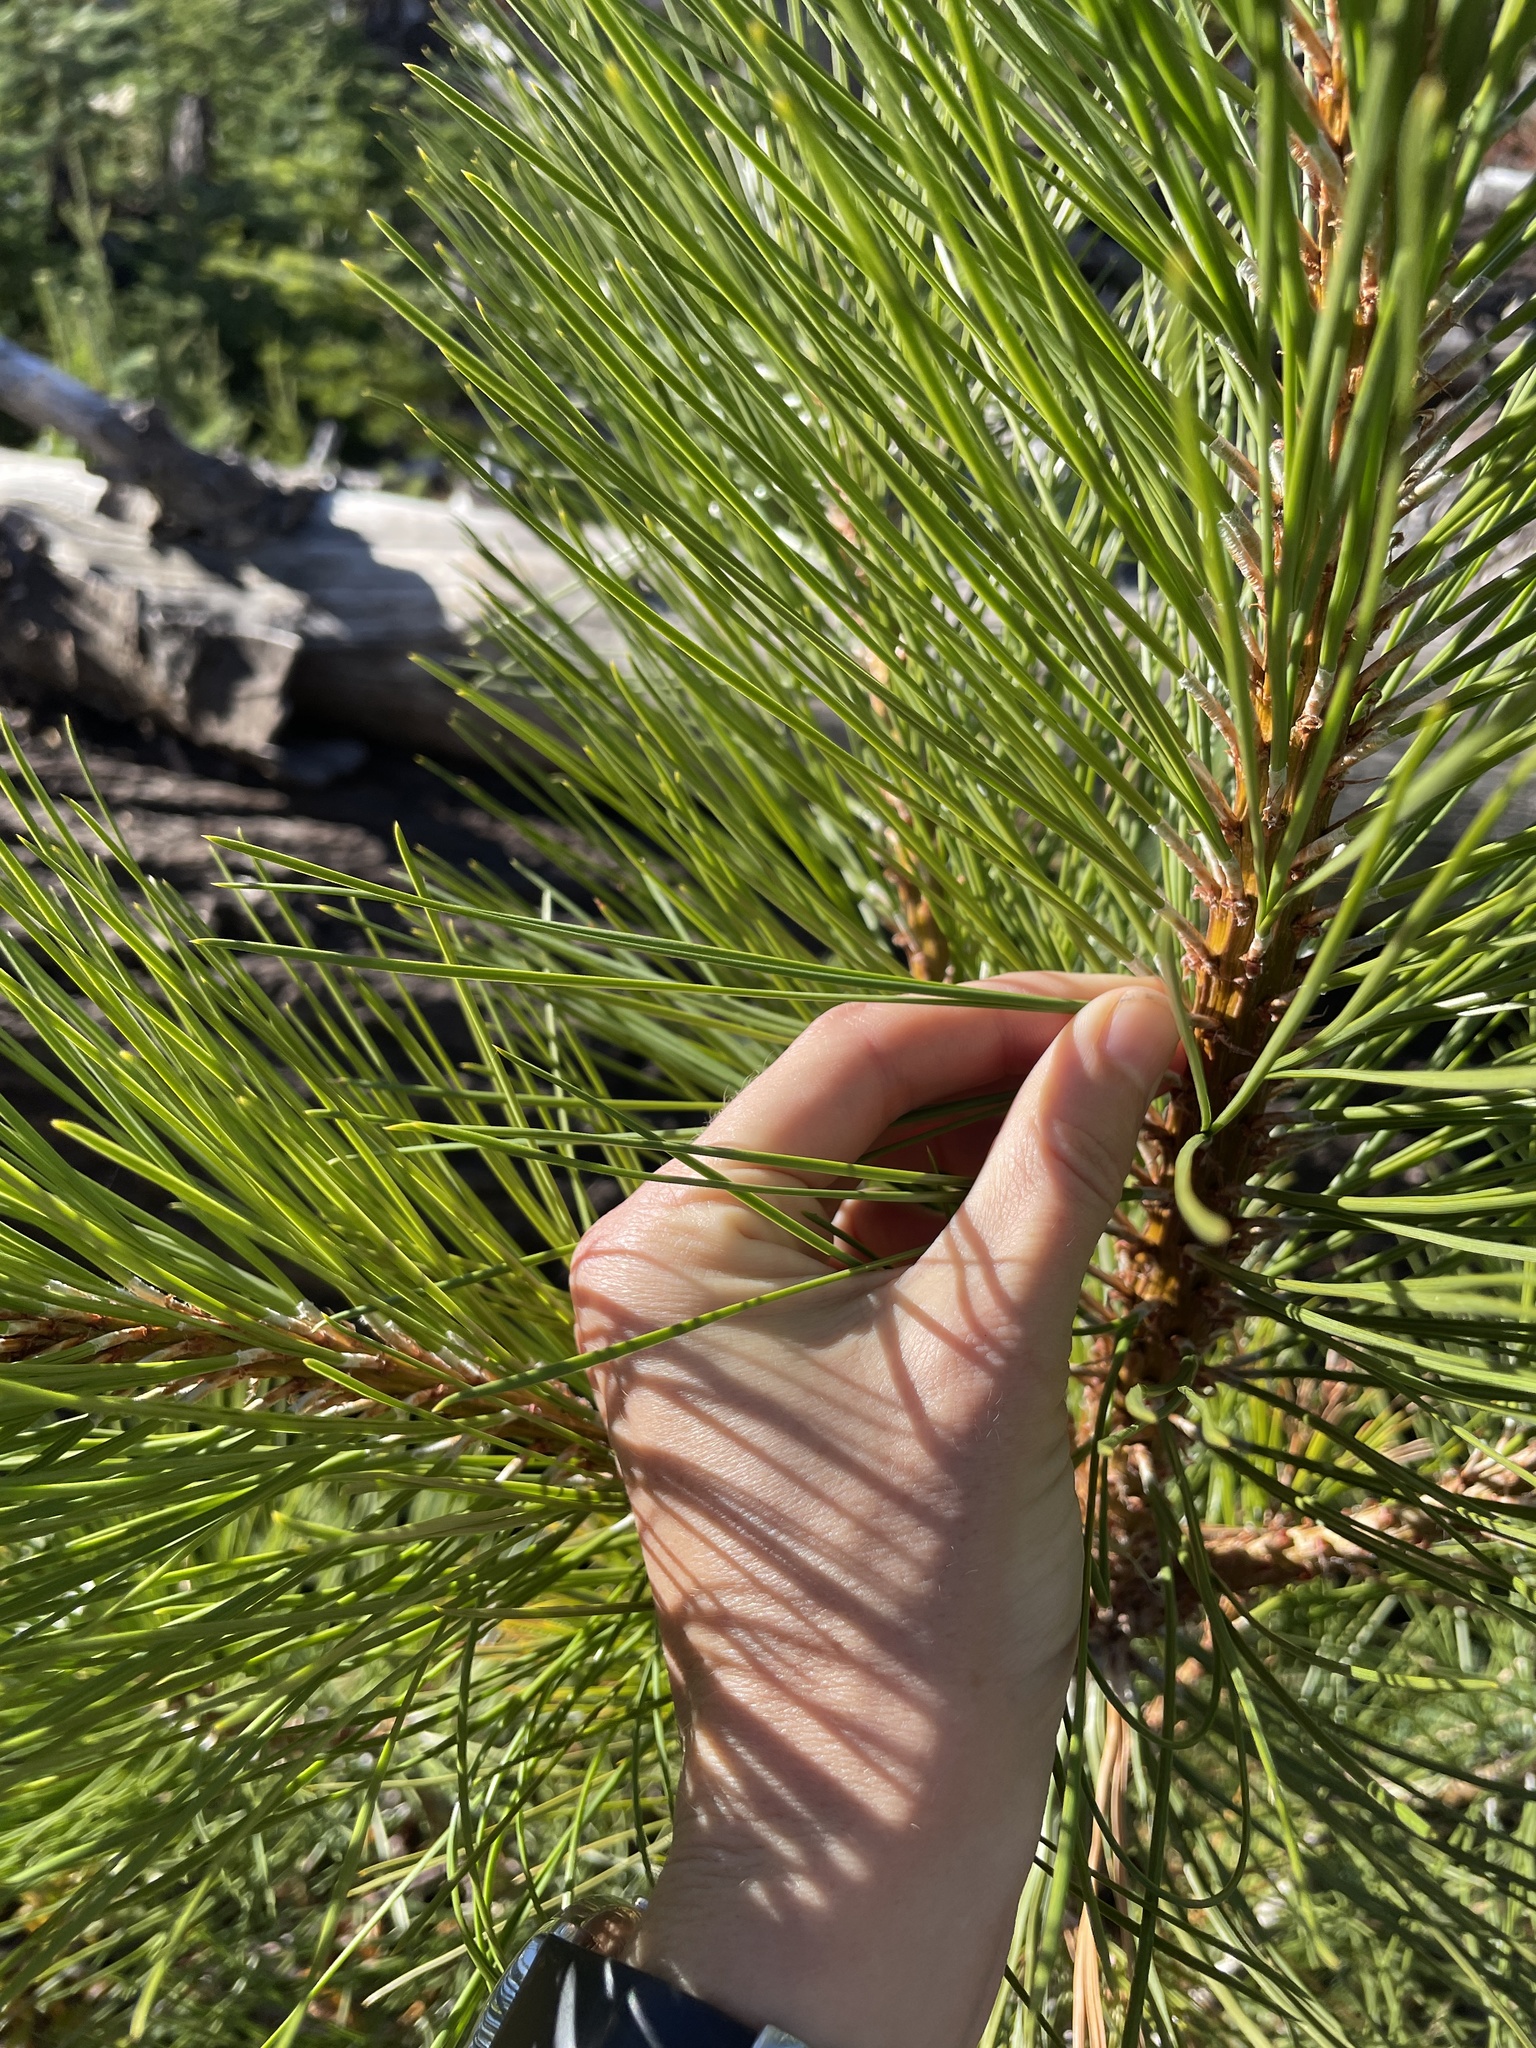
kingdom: Plantae
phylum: Tracheophyta
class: Pinopsida
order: Pinales
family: Pinaceae
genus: Pinus
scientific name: Pinus ponderosa
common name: Western yellow-pine
